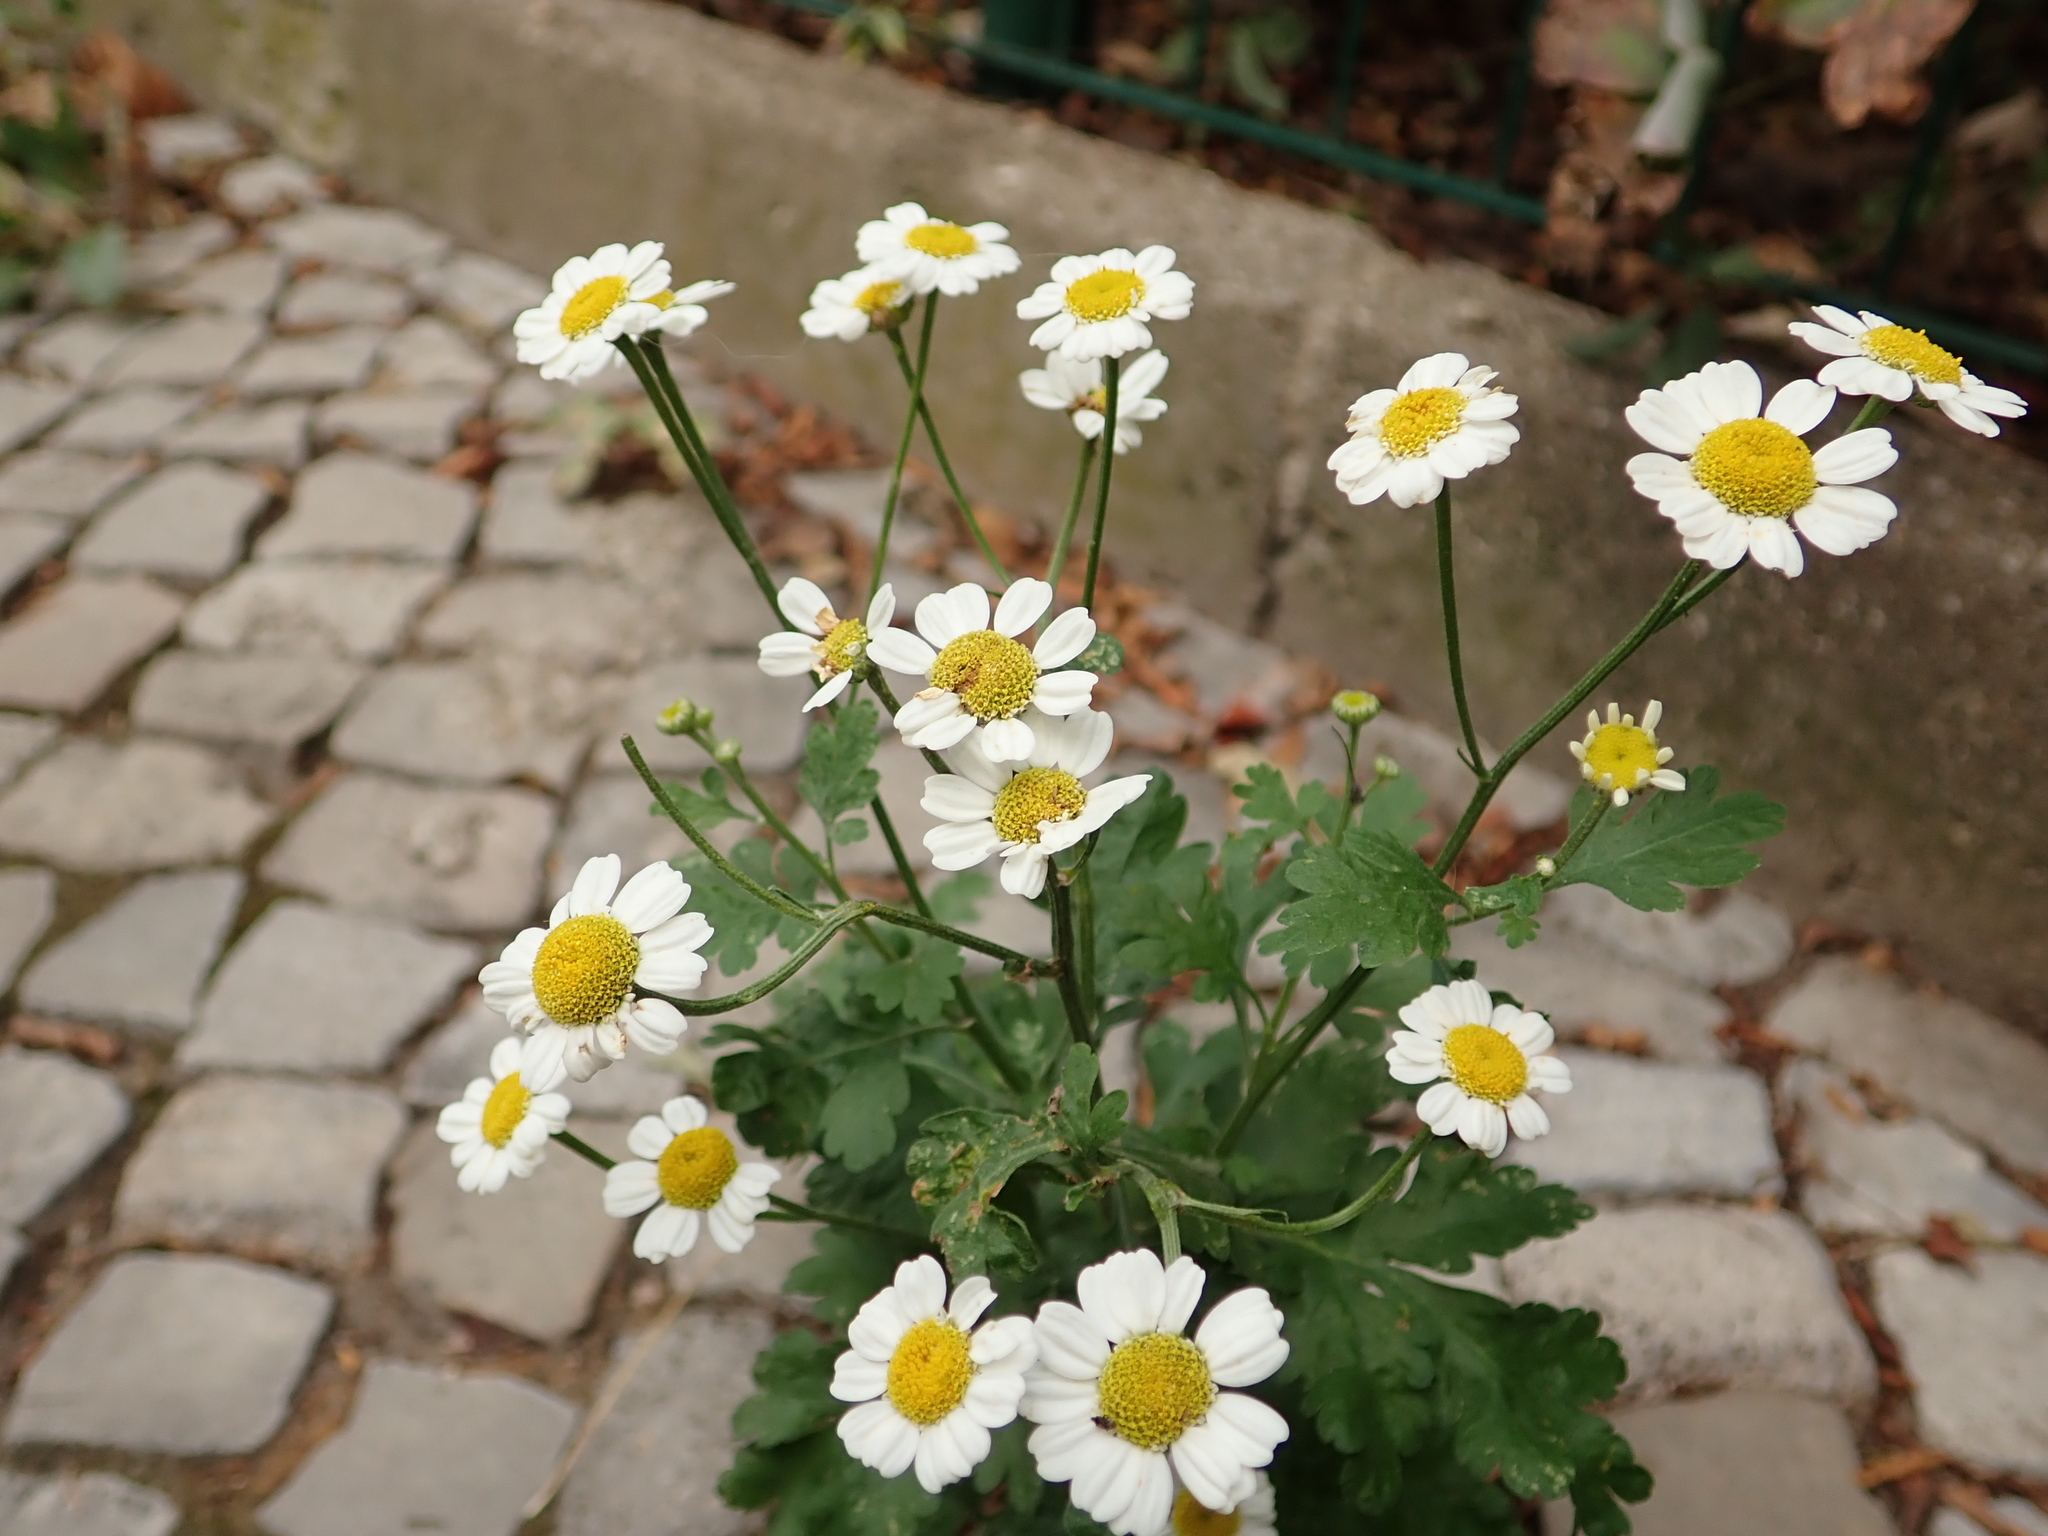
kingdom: Plantae
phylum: Tracheophyta
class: Magnoliopsida
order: Asterales
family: Asteraceae
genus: Tanacetum
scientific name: Tanacetum parthenium
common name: Feverfew
